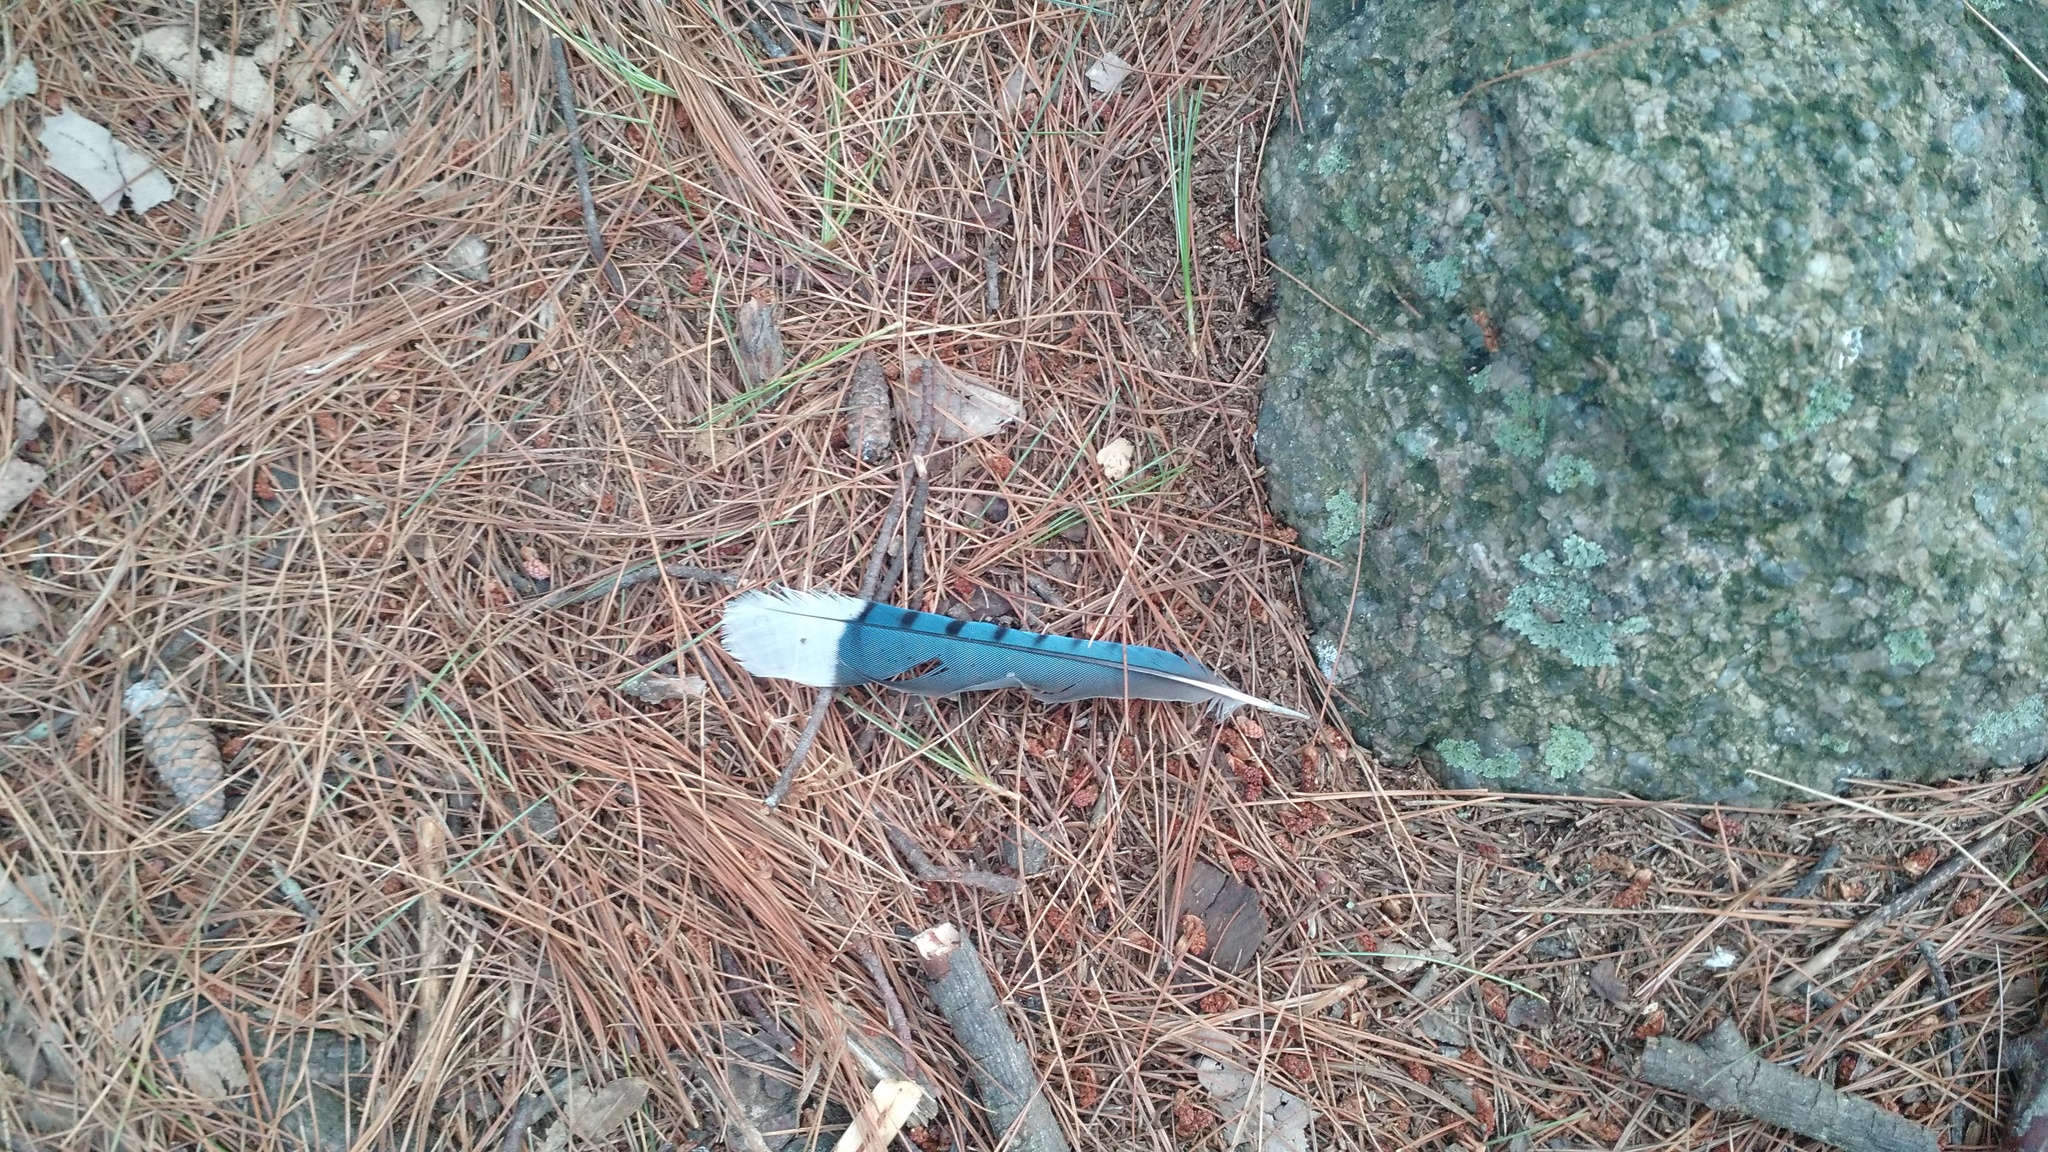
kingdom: Animalia
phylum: Chordata
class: Aves
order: Passeriformes
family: Corvidae
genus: Cyanocitta
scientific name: Cyanocitta cristata
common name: Blue jay
